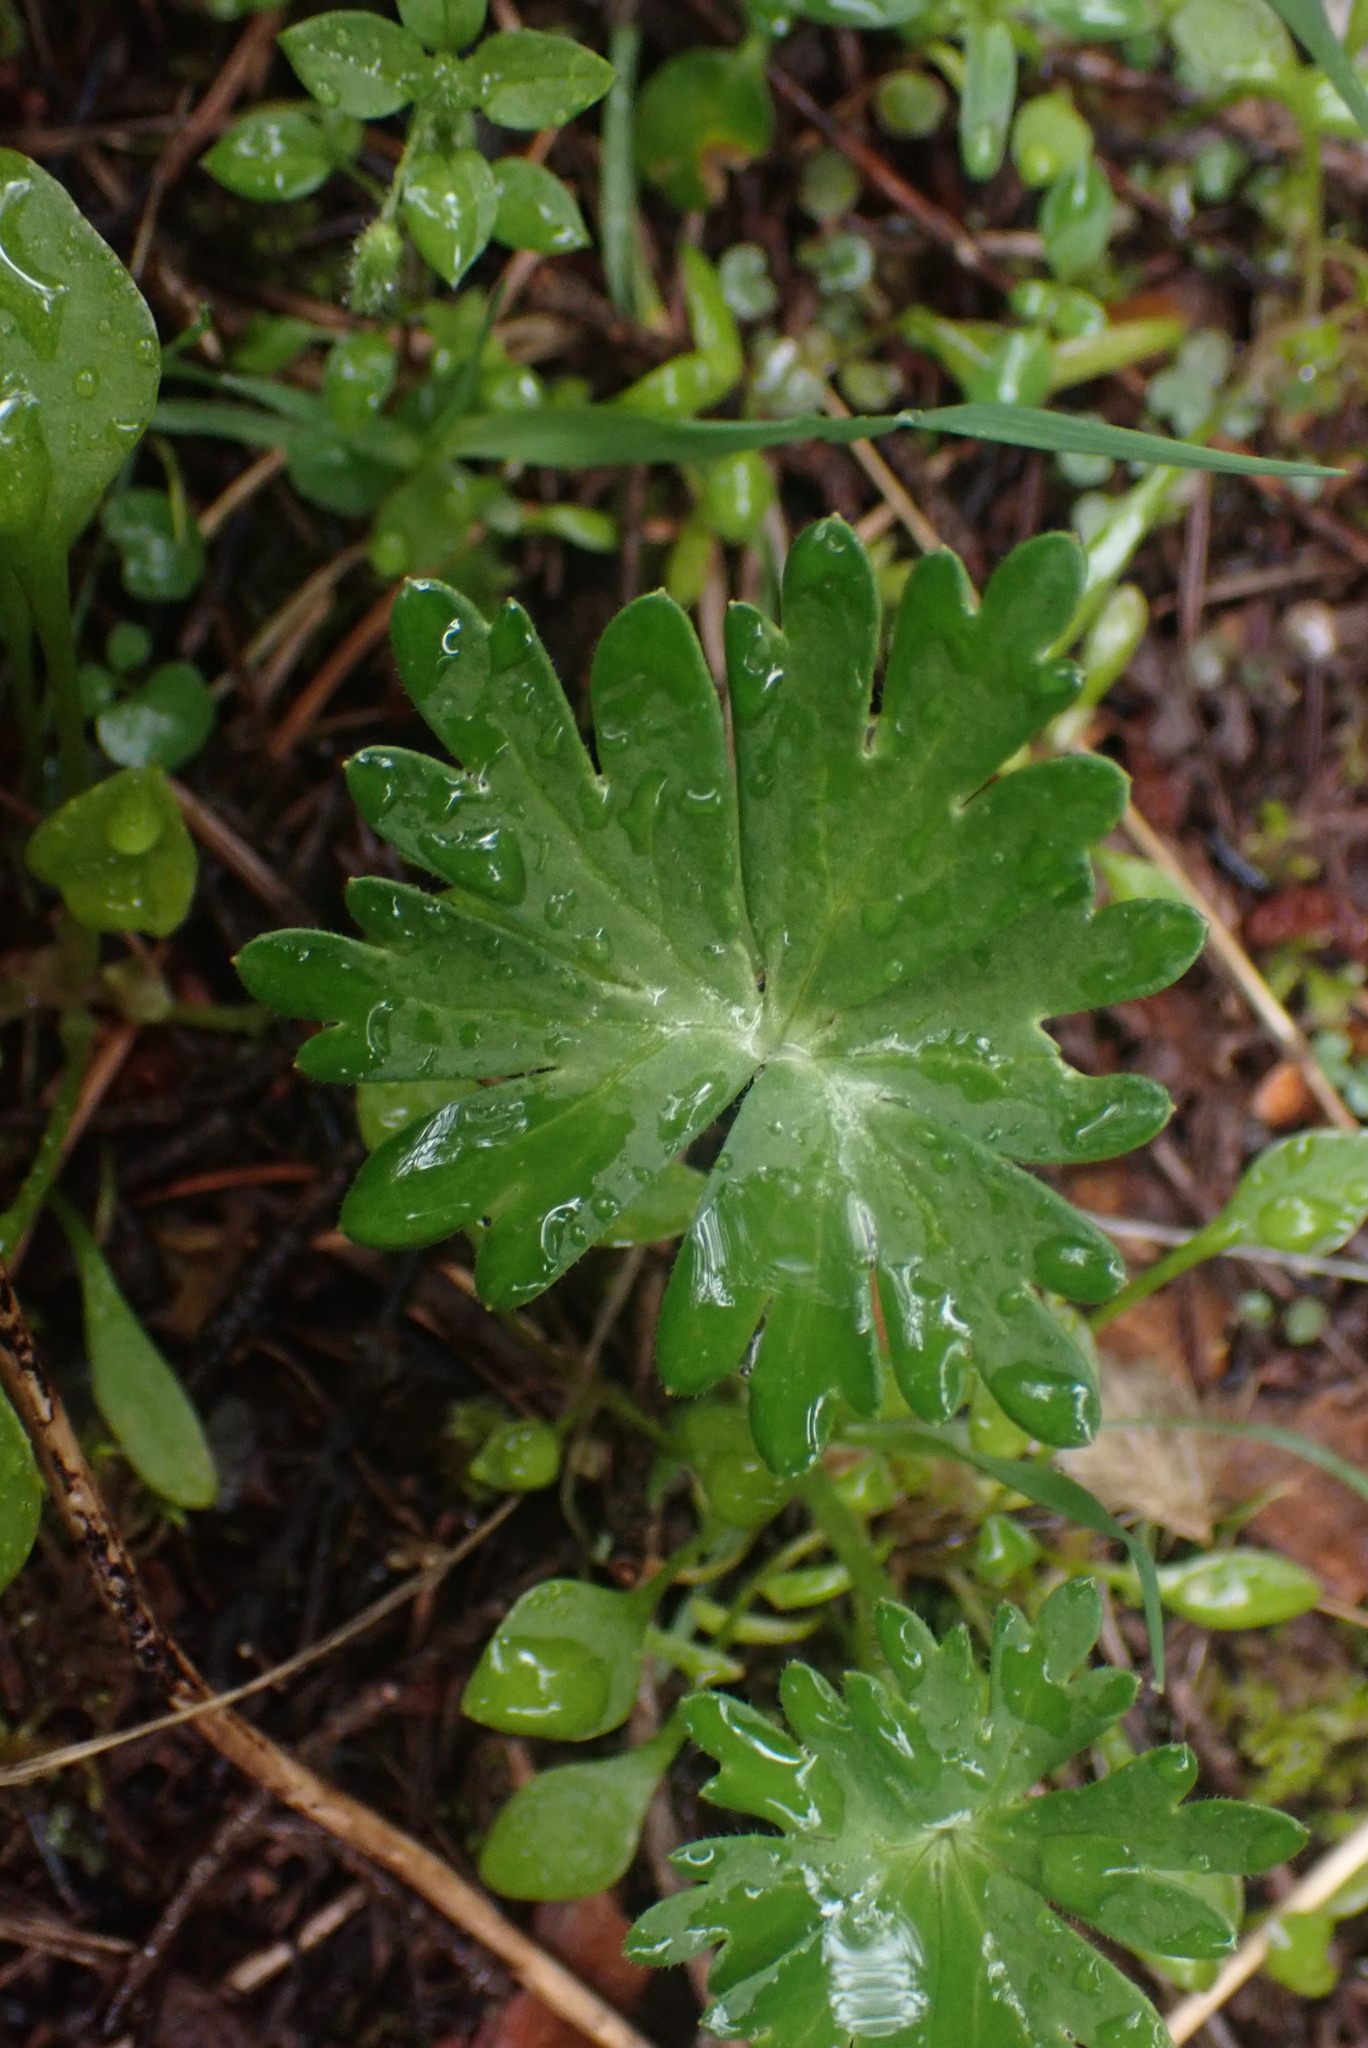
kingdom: Plantae
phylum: Tracheophyta
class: Magnoliopsida
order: Ranunculales
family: Ranunculaceae
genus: Delphinium
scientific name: Delphinium menziesii
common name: Menzies's larkspur
